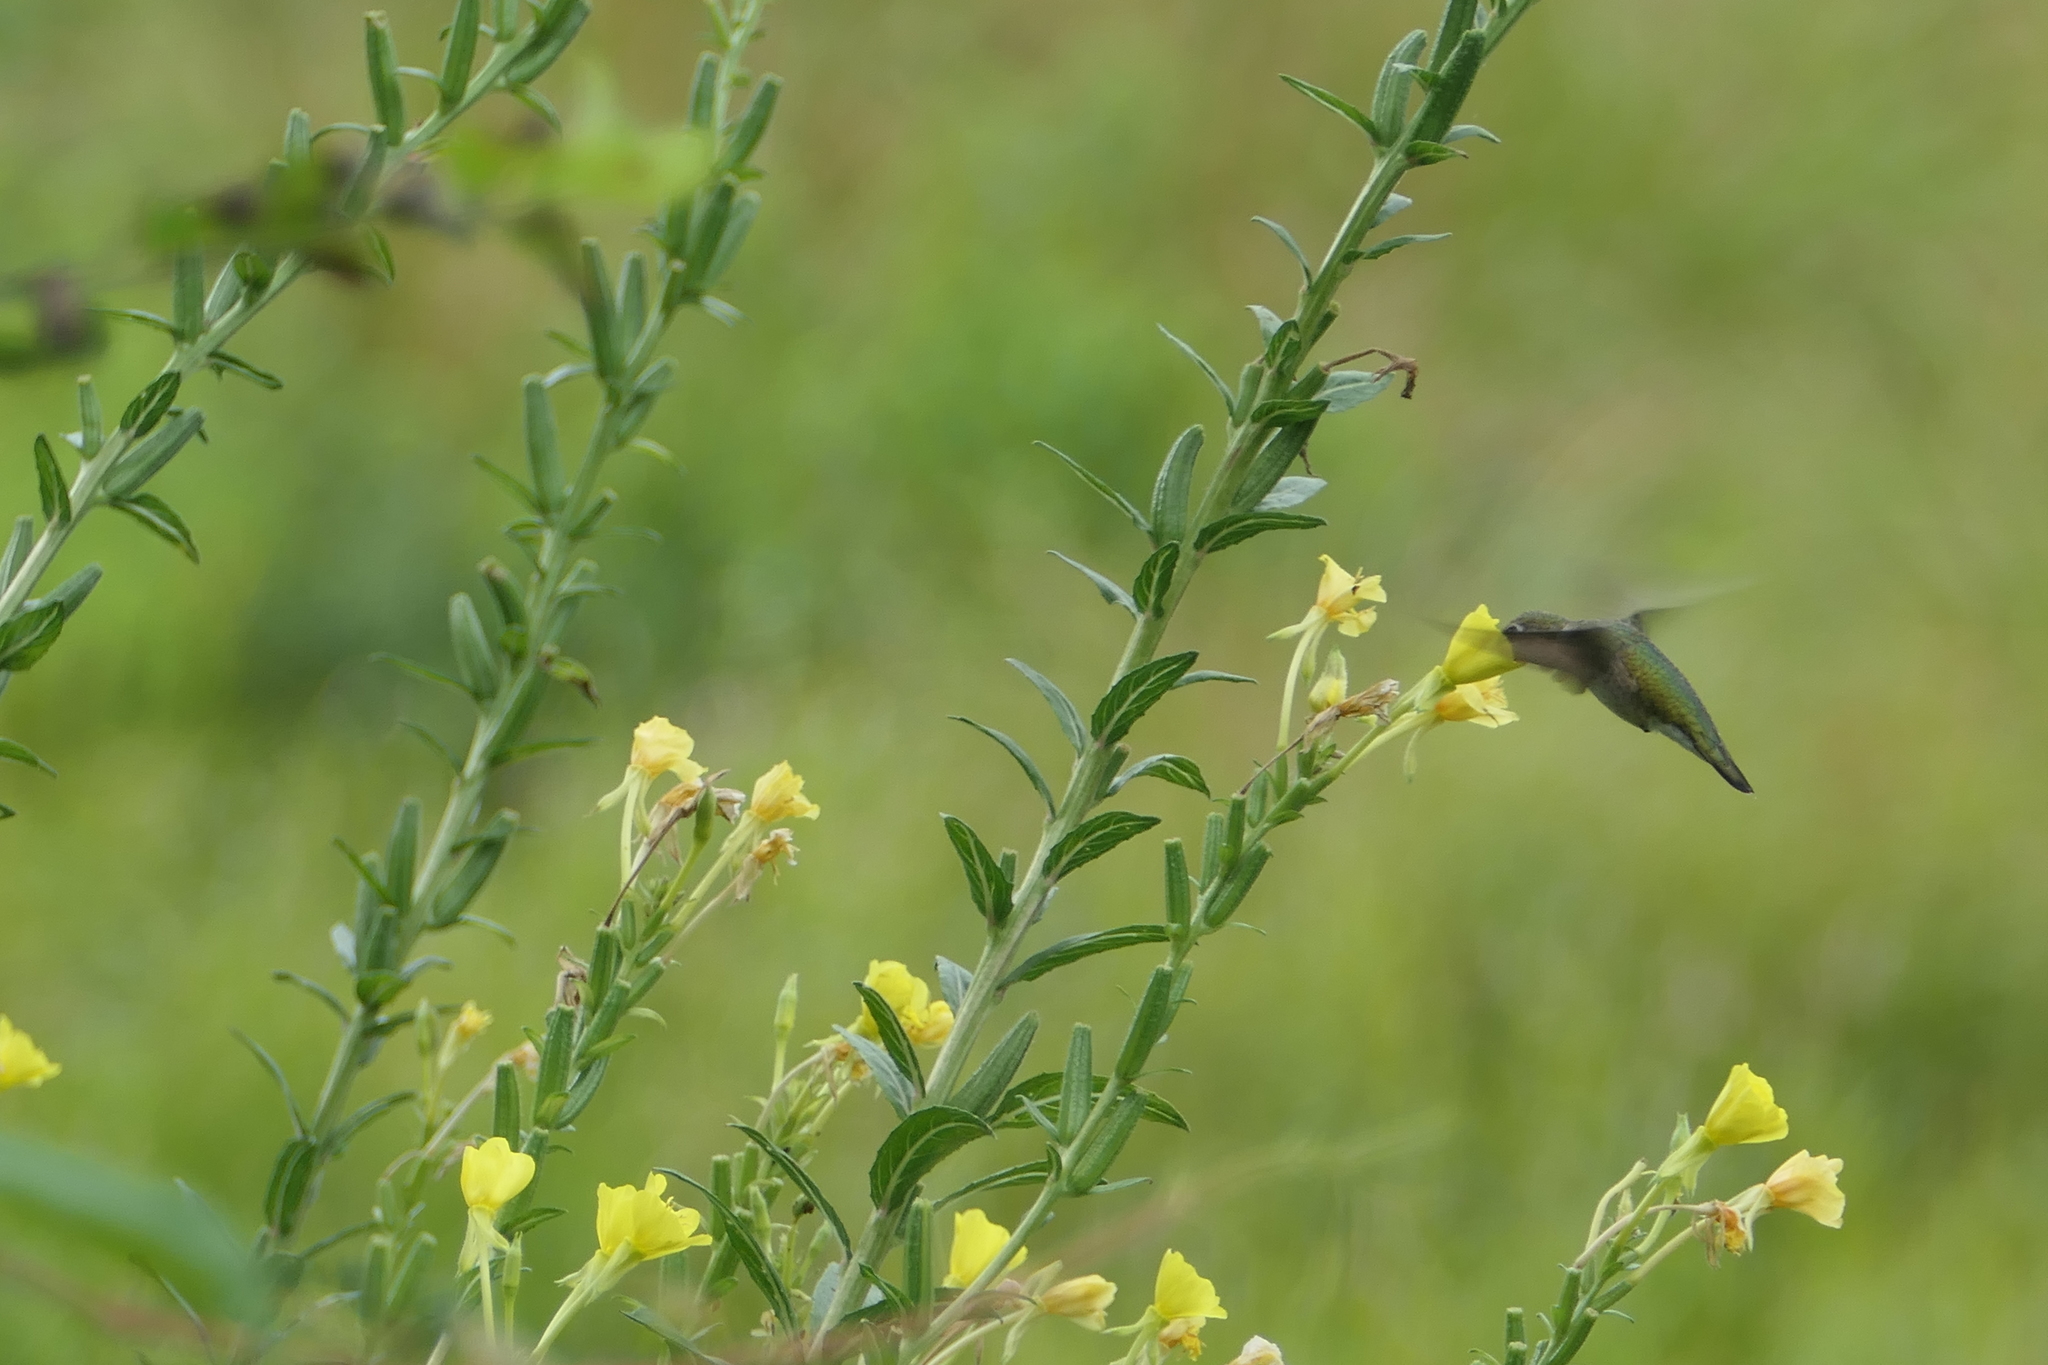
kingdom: Animalia
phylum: Chordata
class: Aves
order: Apodiformes
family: Trochilidae
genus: Archilochus
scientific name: Archilochus colubris
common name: Ruby-throated hummingbird
